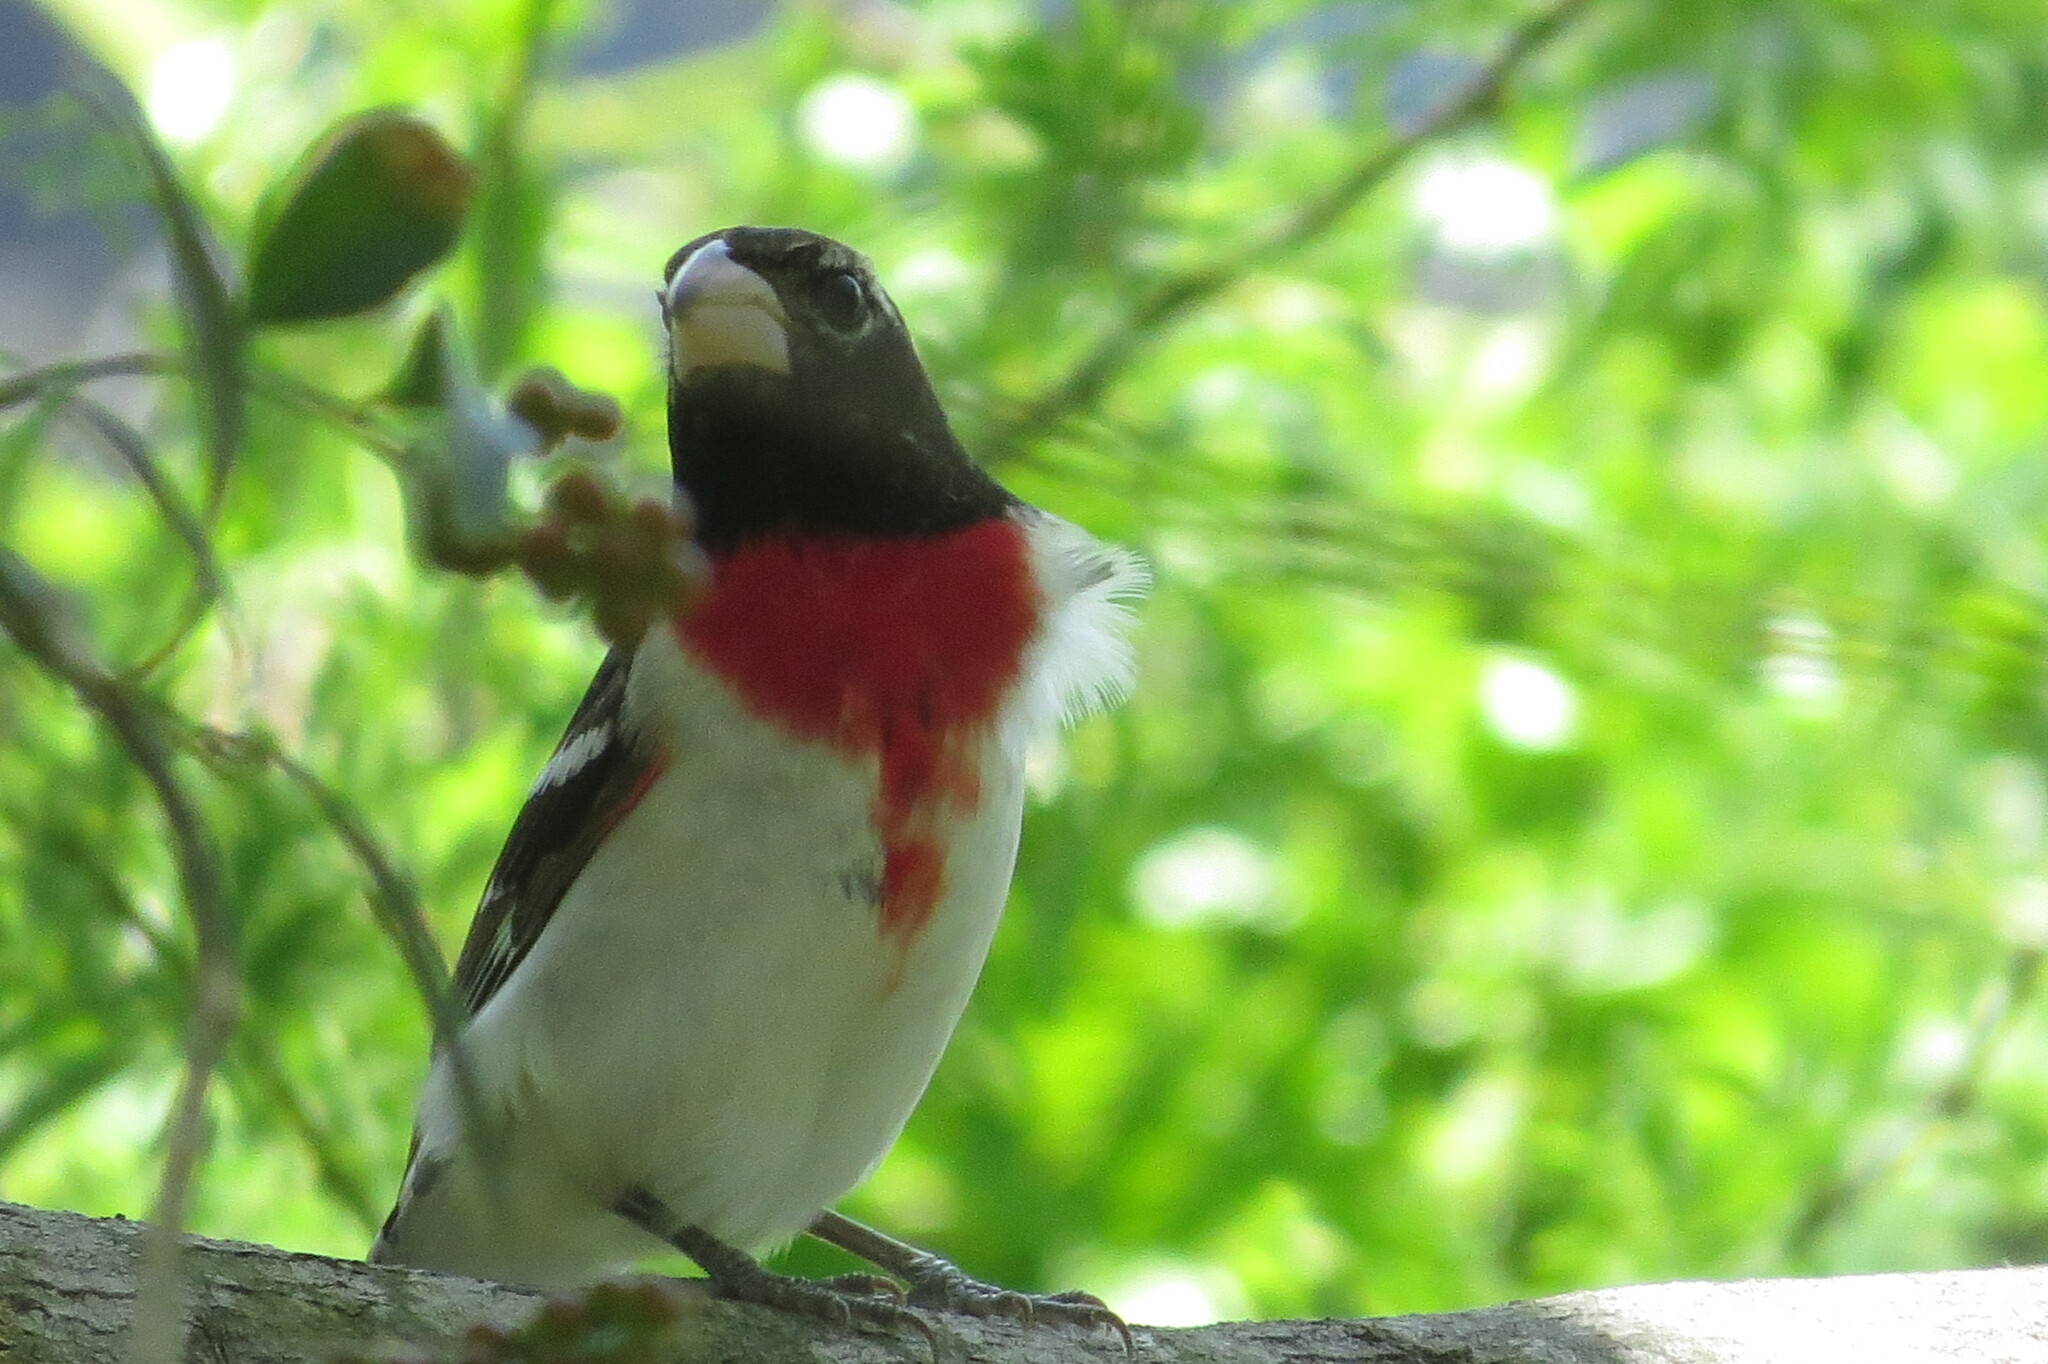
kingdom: Animalia
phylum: Chordata
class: Aves
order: Passeriformes
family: Cardinalidae
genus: Pheucticus
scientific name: Pheucticus ludovicianus
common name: Rose-breasted grosbeak
